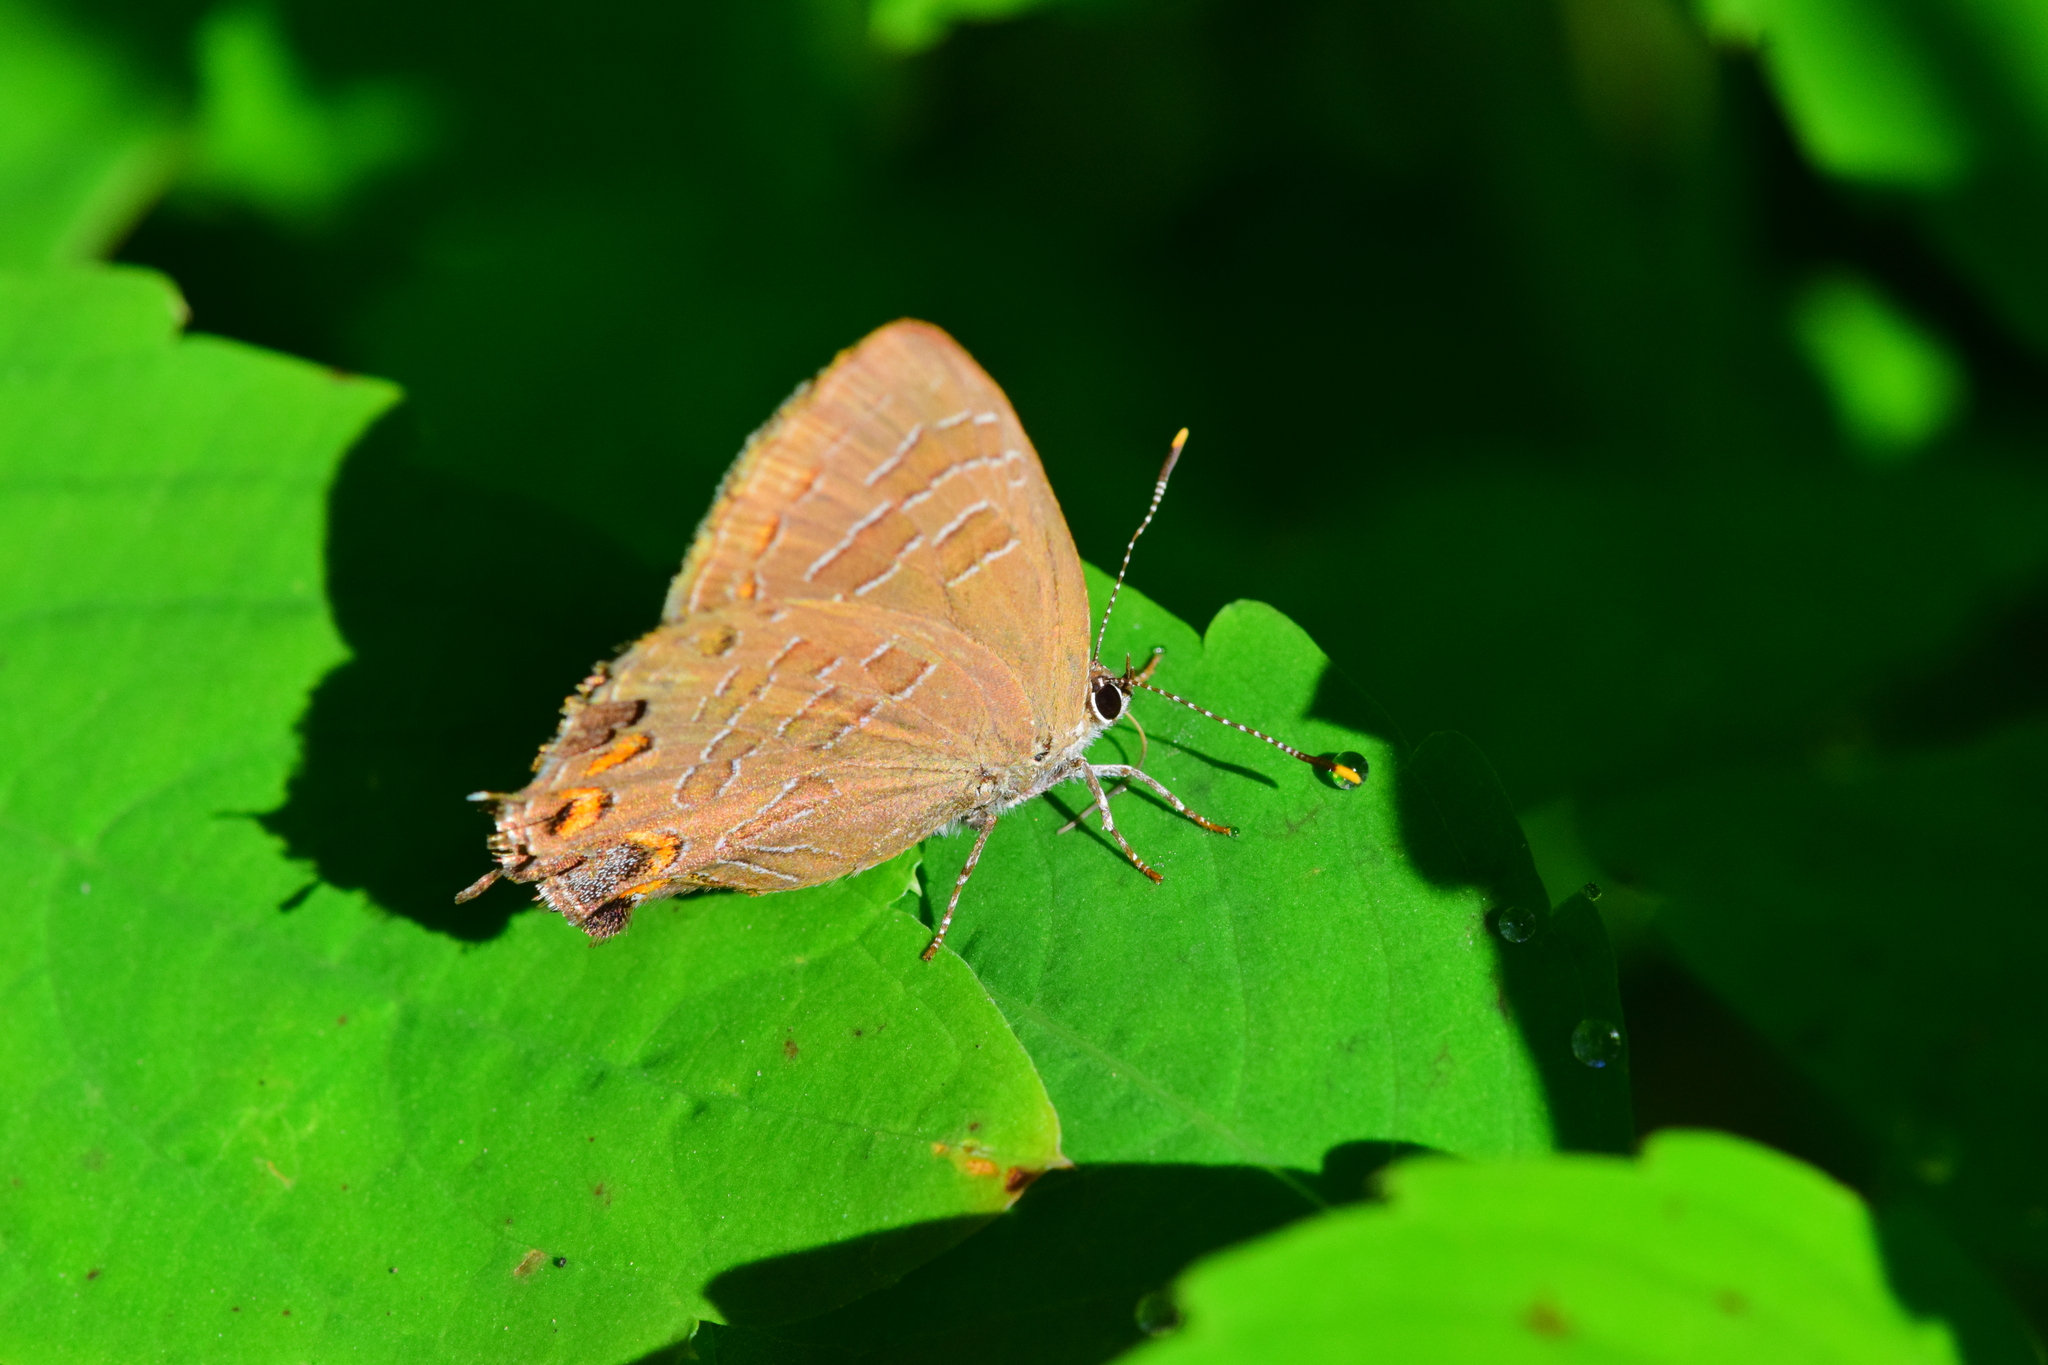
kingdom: Animalia
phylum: Arthropoda
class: Insecta
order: Lepidoptera
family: Lycaenidae
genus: Satyrium
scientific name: Satyrium liparops
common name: Striped hairstreak
